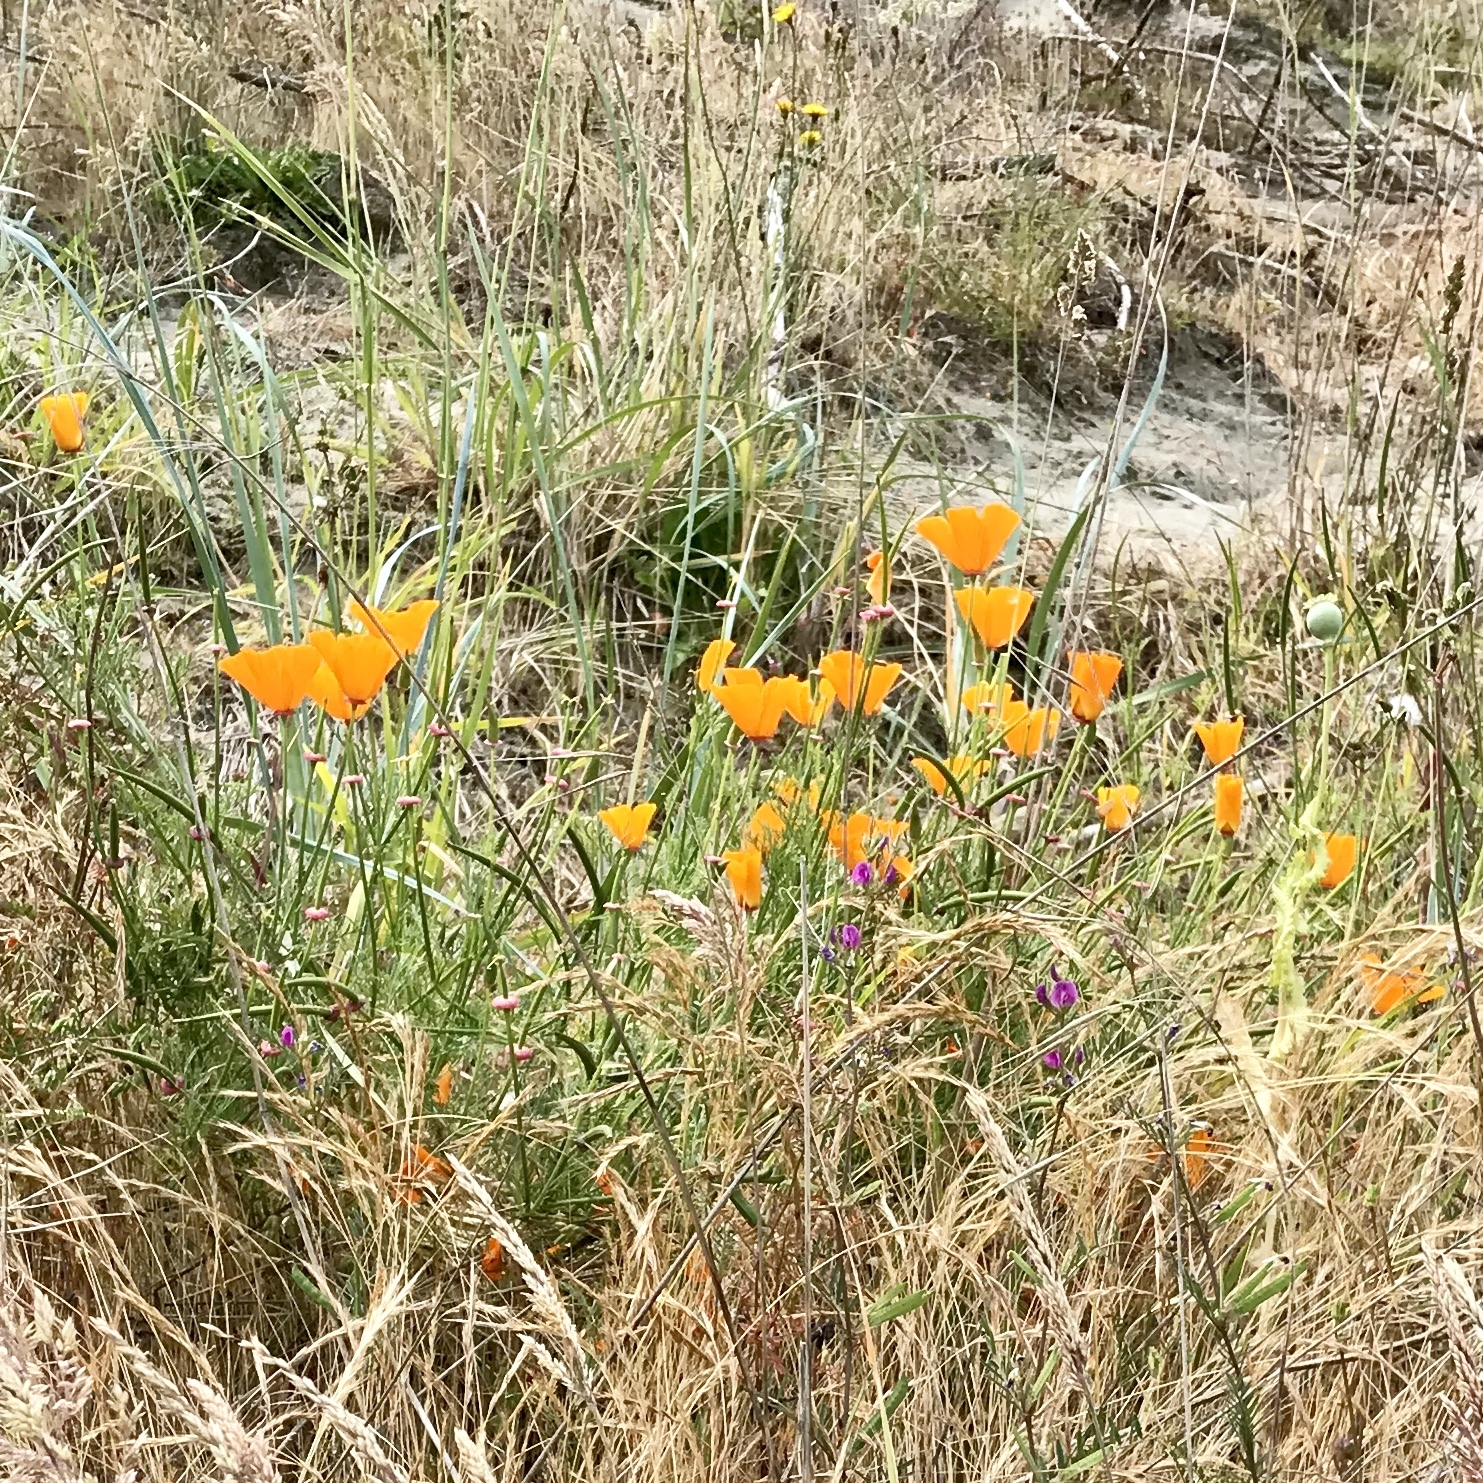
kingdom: Plantae
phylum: Tracheophyta
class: Magnoliopsida
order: Ranunculales
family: Papaveraceae
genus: Eschscholzia
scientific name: Eschscholzia californica
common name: California poppy
